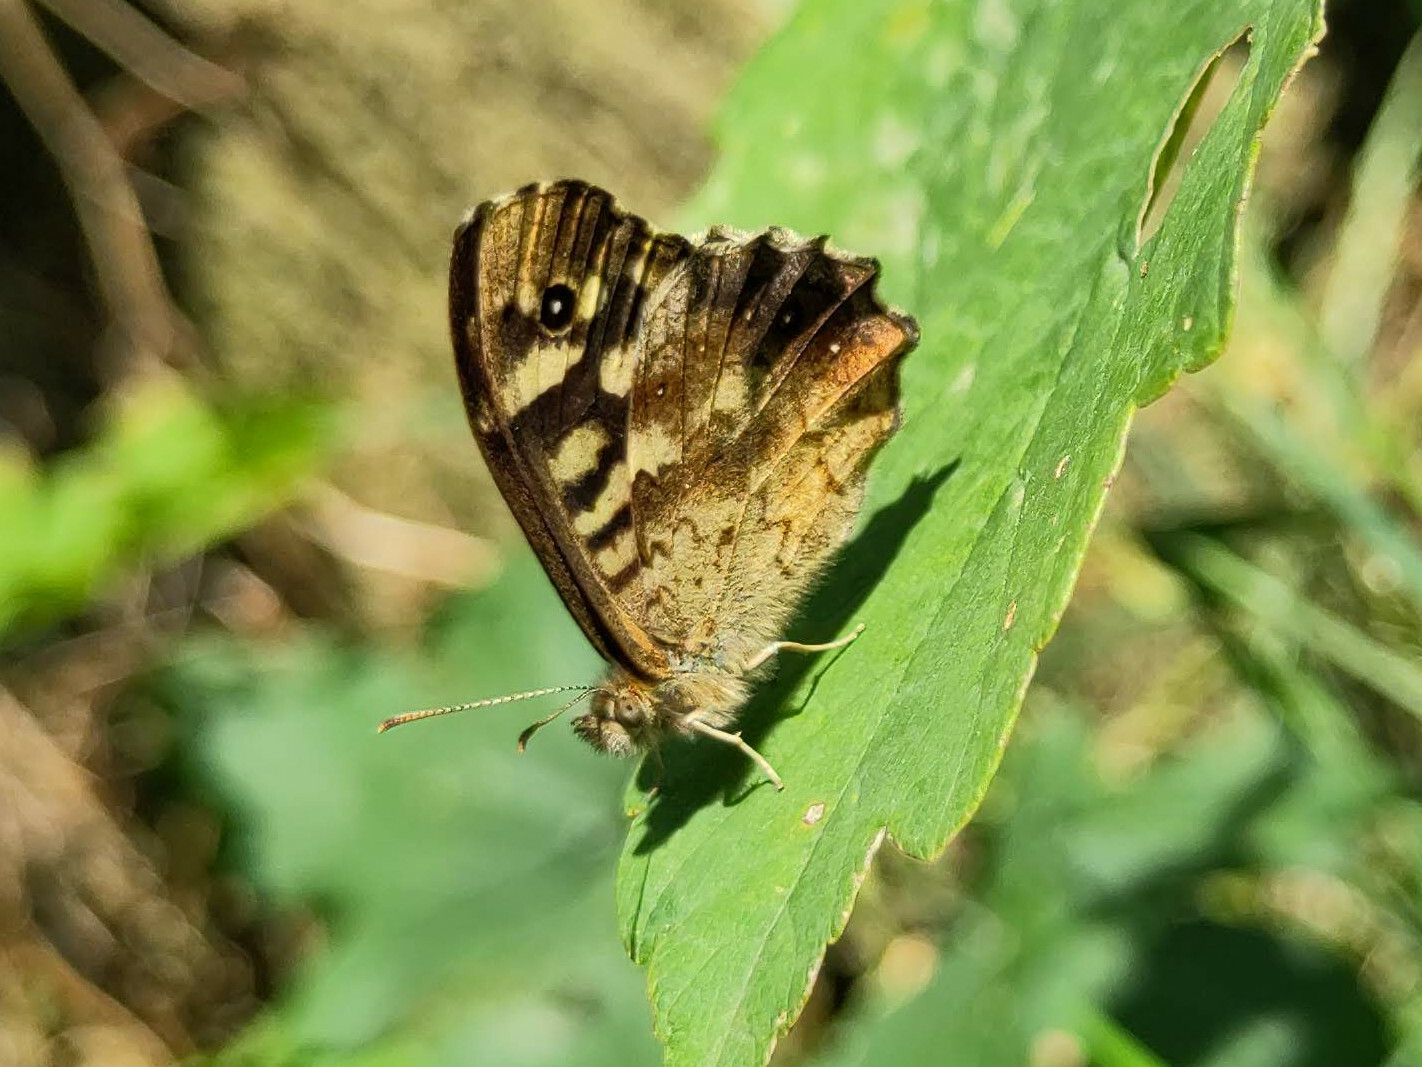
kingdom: Animalia
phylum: Arthropoda
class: Insecta
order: Lepidoptera
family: Nymphalidae
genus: Pararge
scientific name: Pararge aegeria
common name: Speckled wood
